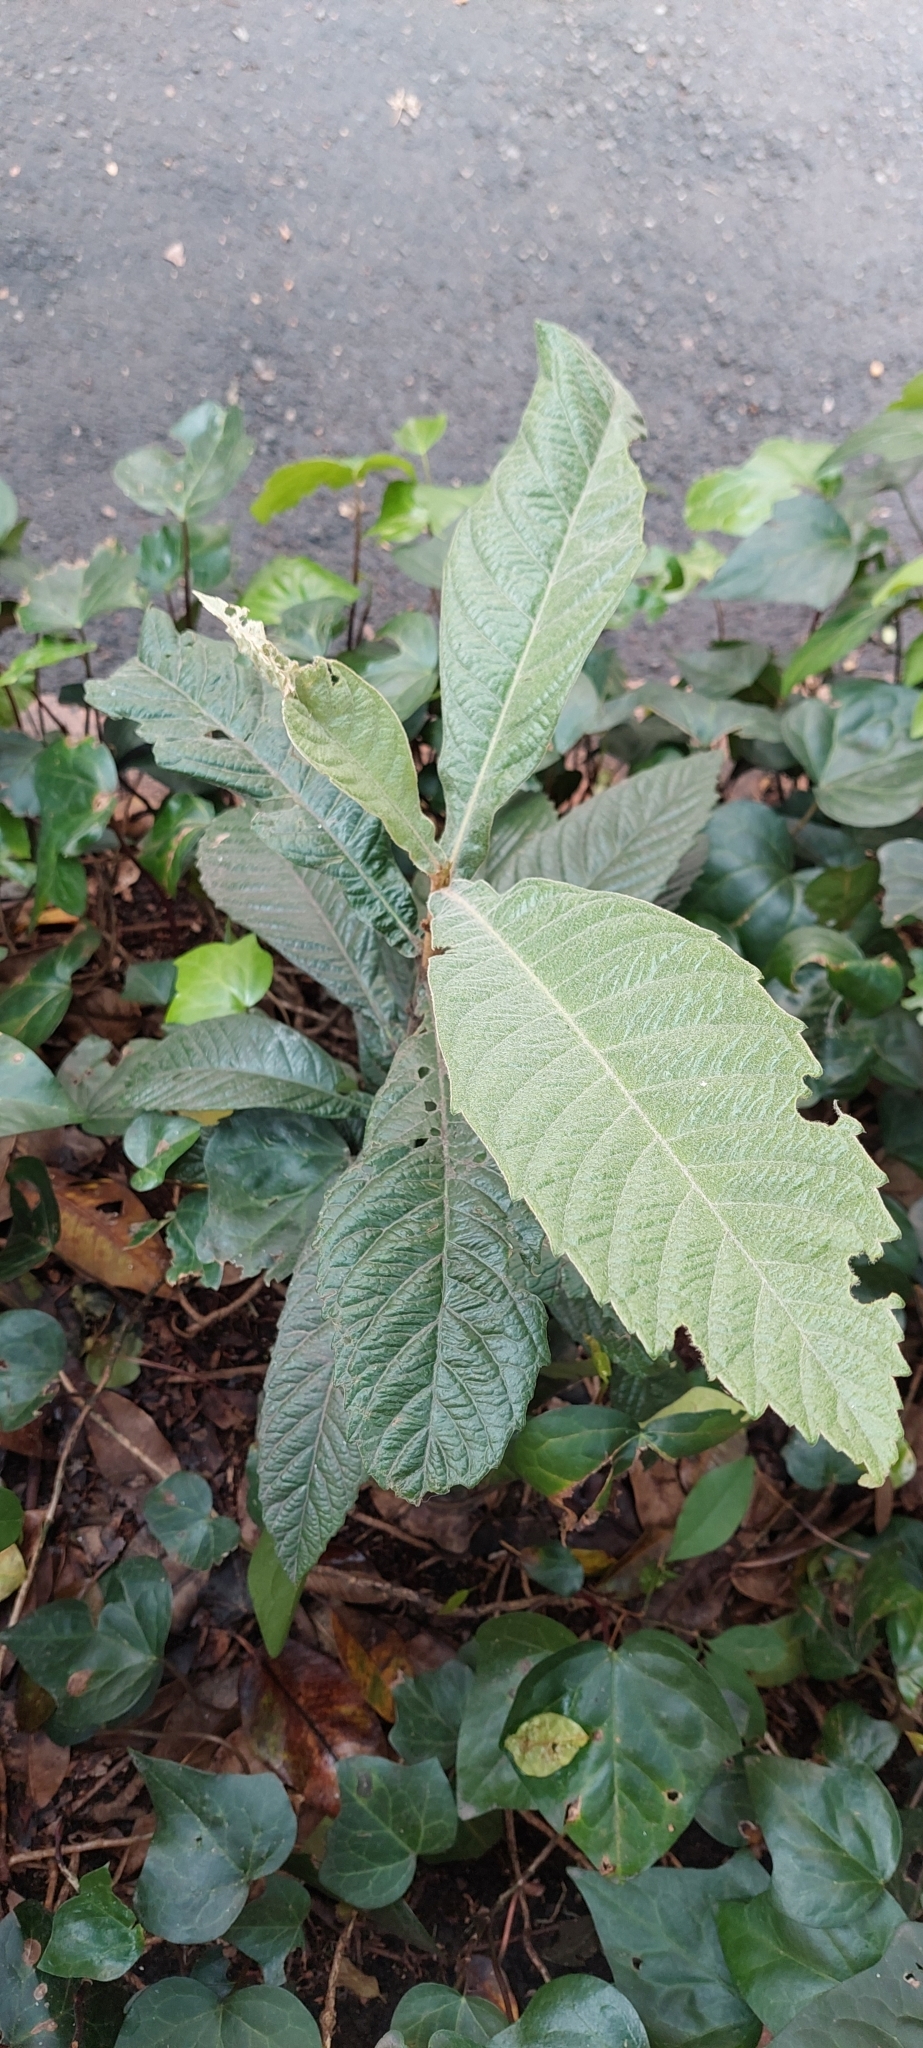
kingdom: Plantae
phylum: Tracheophyta
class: Magnoliopsida
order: Rosales
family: Rosaceae
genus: Rhaphiolepis
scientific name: Rhaphiolepis bibas
